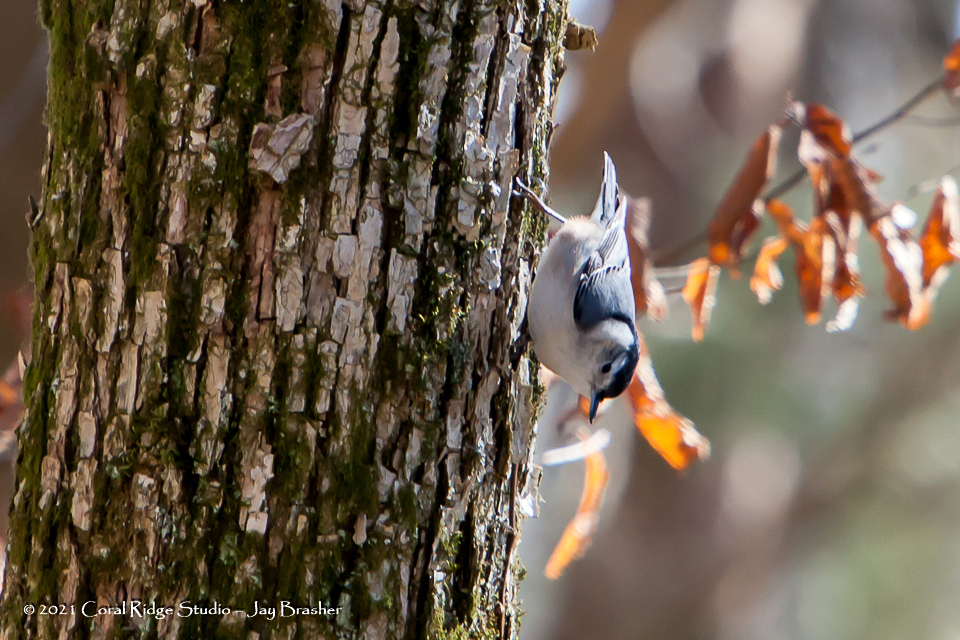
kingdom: Animalia
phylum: Chordata
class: Aves
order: Passeriformes
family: Sittidae
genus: Sitta
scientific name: Sitta carolinensis
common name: White-breasted nuthatch
